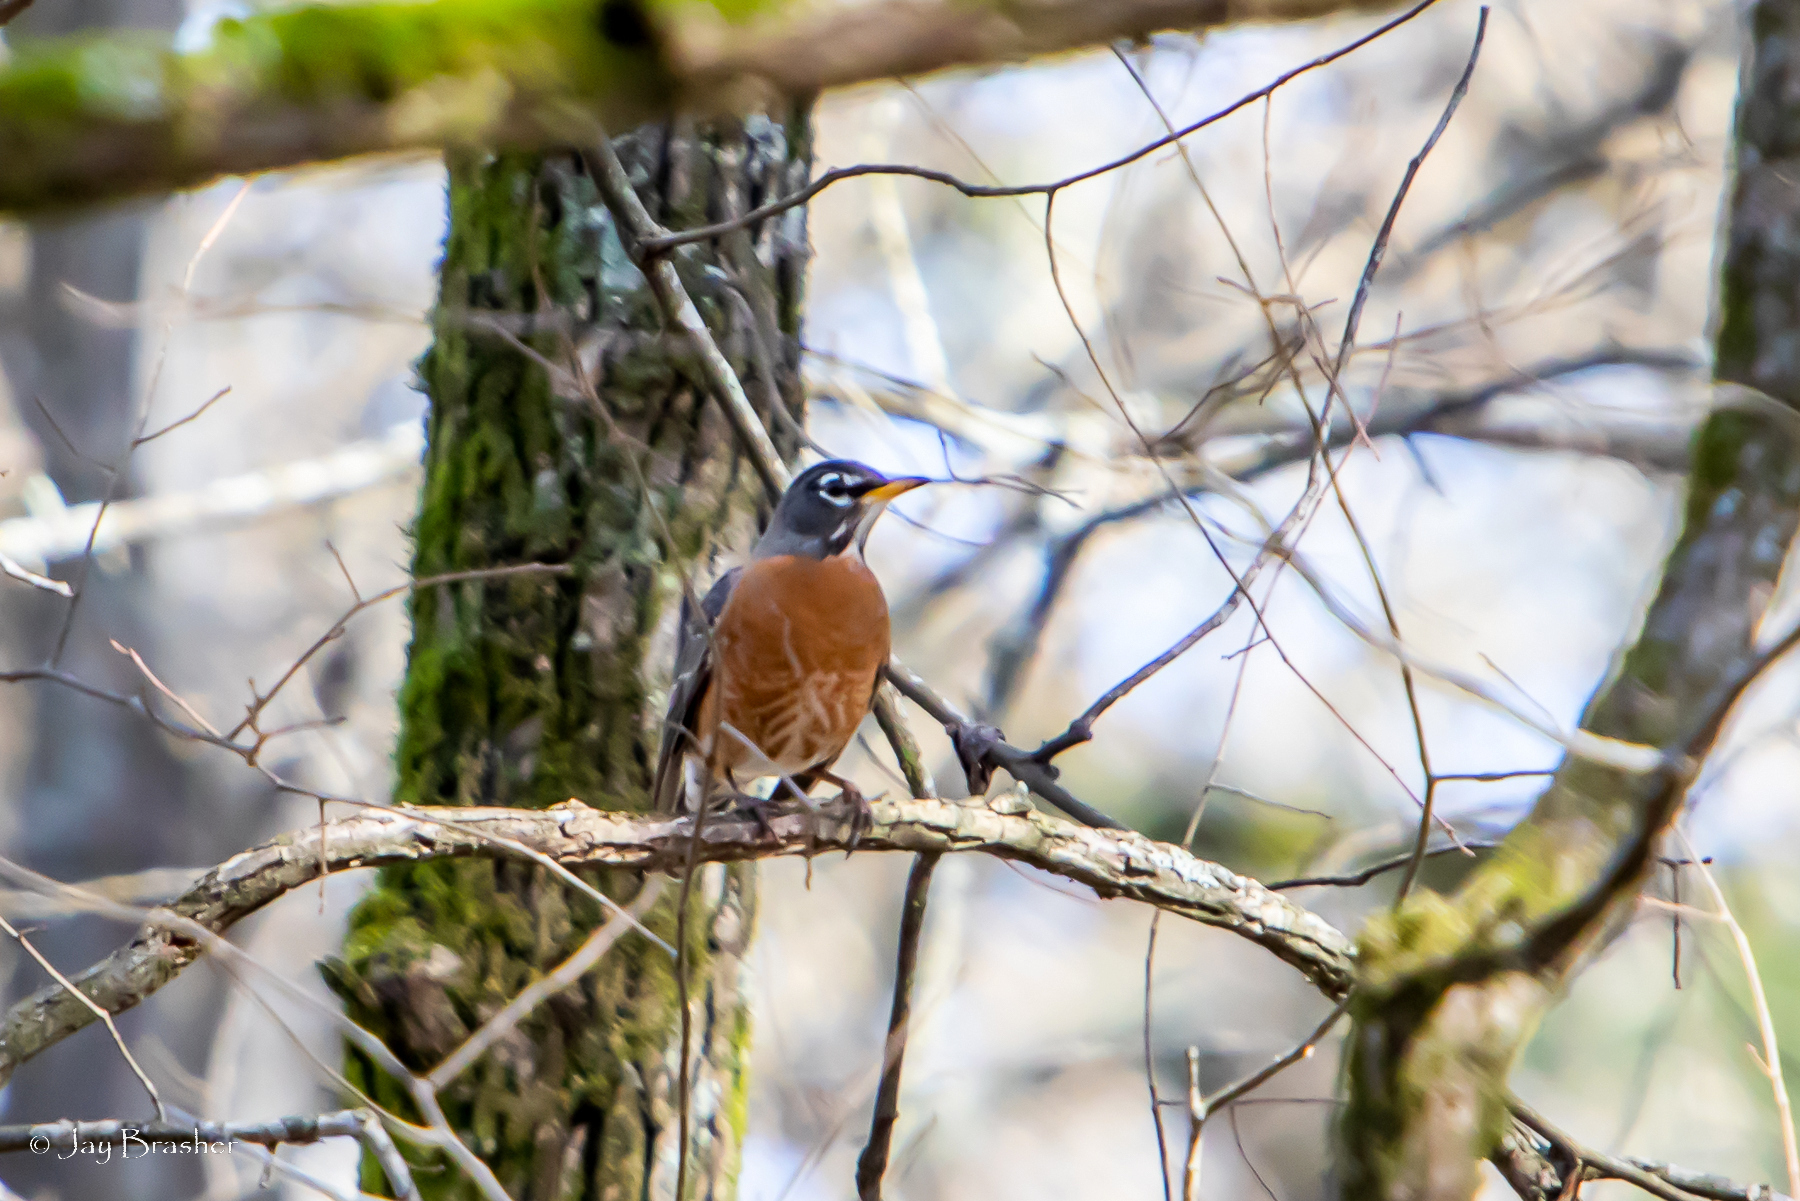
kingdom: Animalia
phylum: Chordata
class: Aves
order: Passeriformes
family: Turdidae
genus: Turdus
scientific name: Turdus migratorius
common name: American robin
